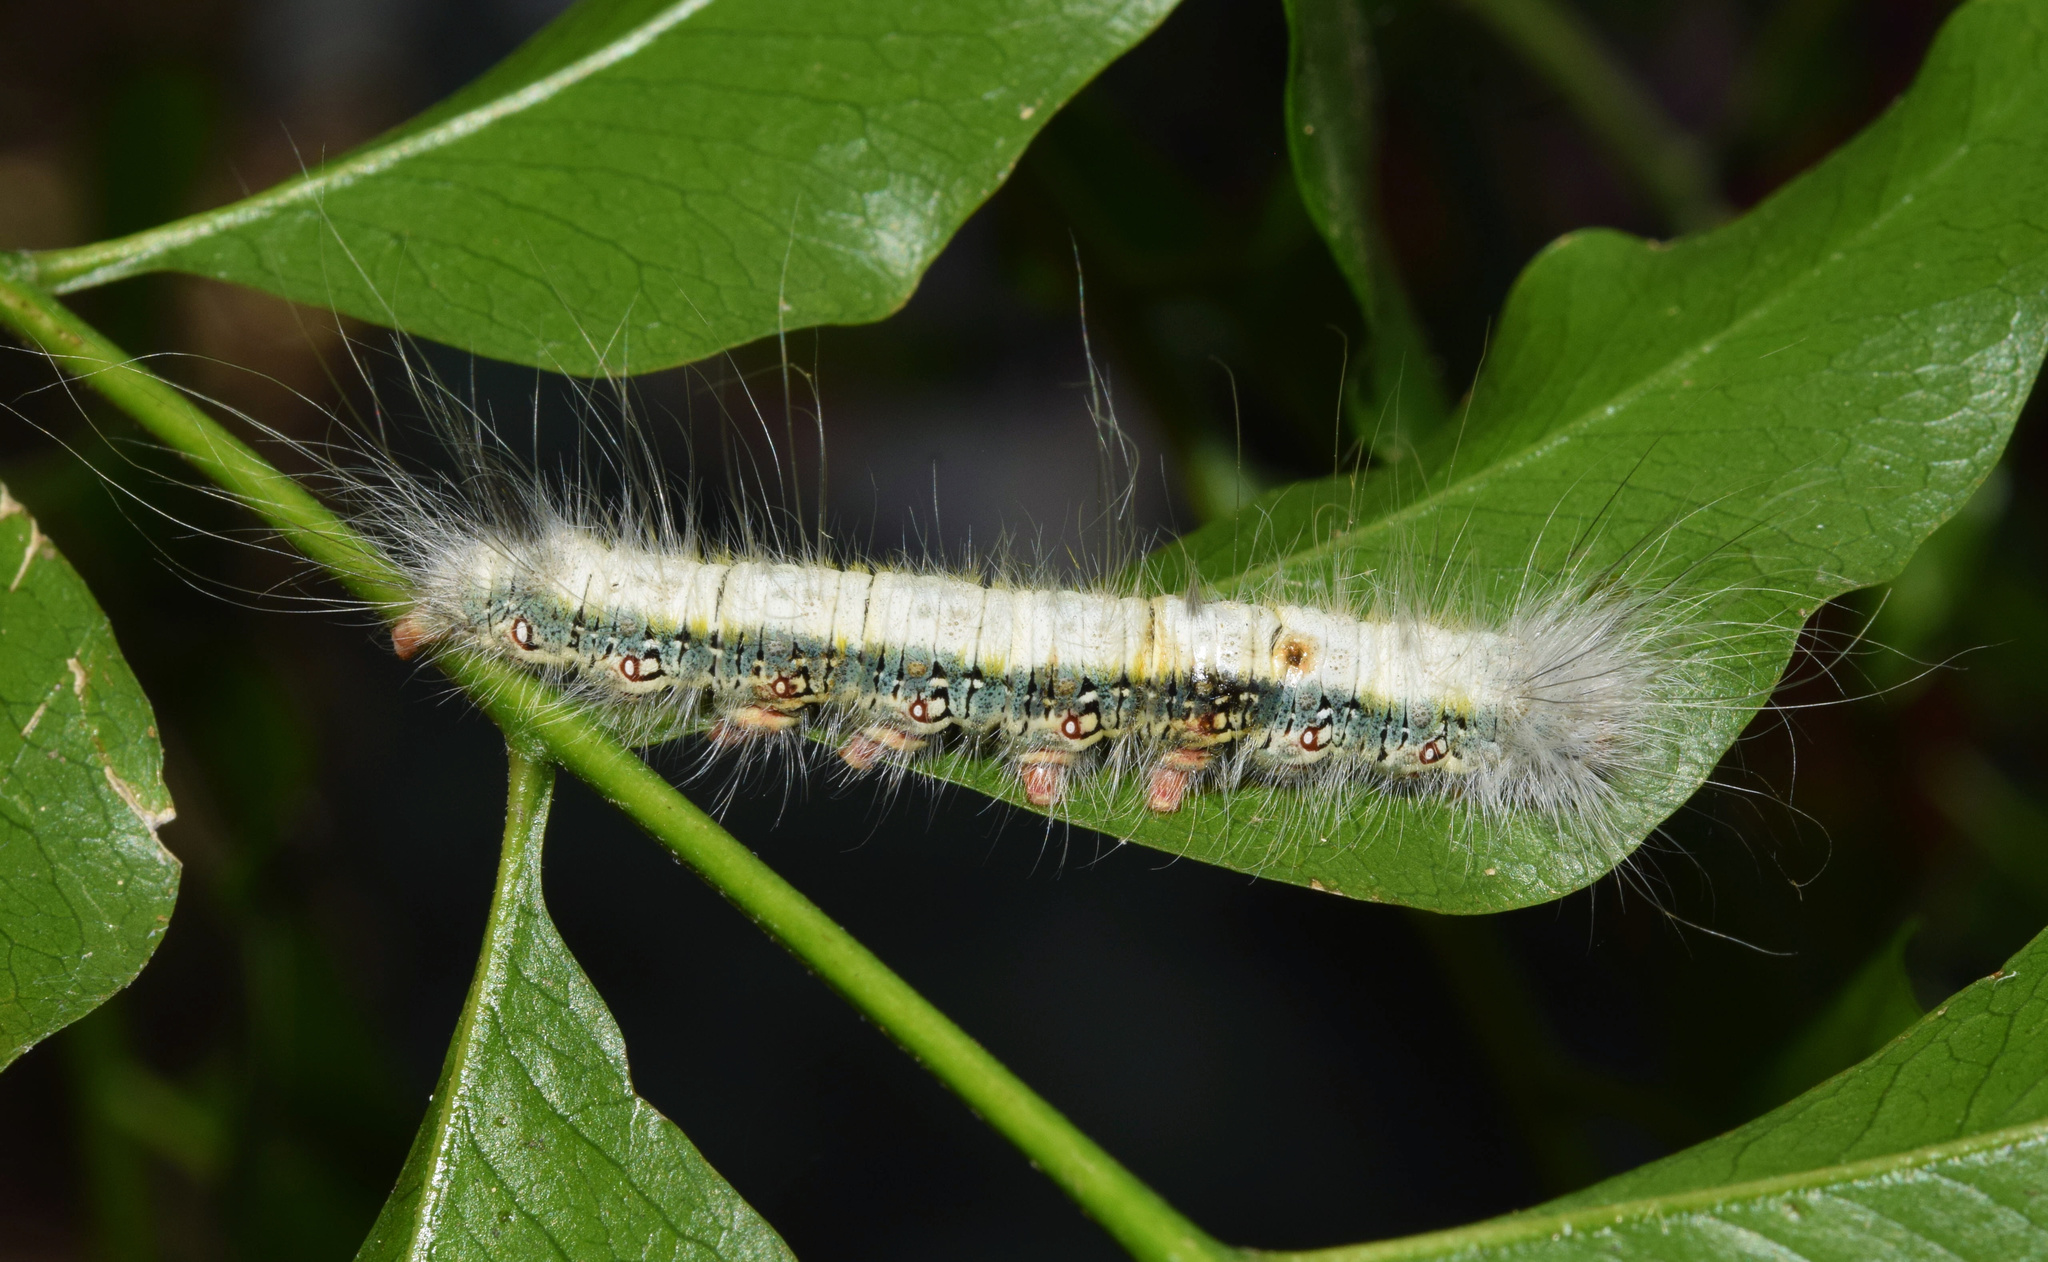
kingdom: Animalia
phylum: Arthropoda
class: Insecta
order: Lepidoptera
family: Eupterotidae
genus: Poloma
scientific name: Poloma angulata
